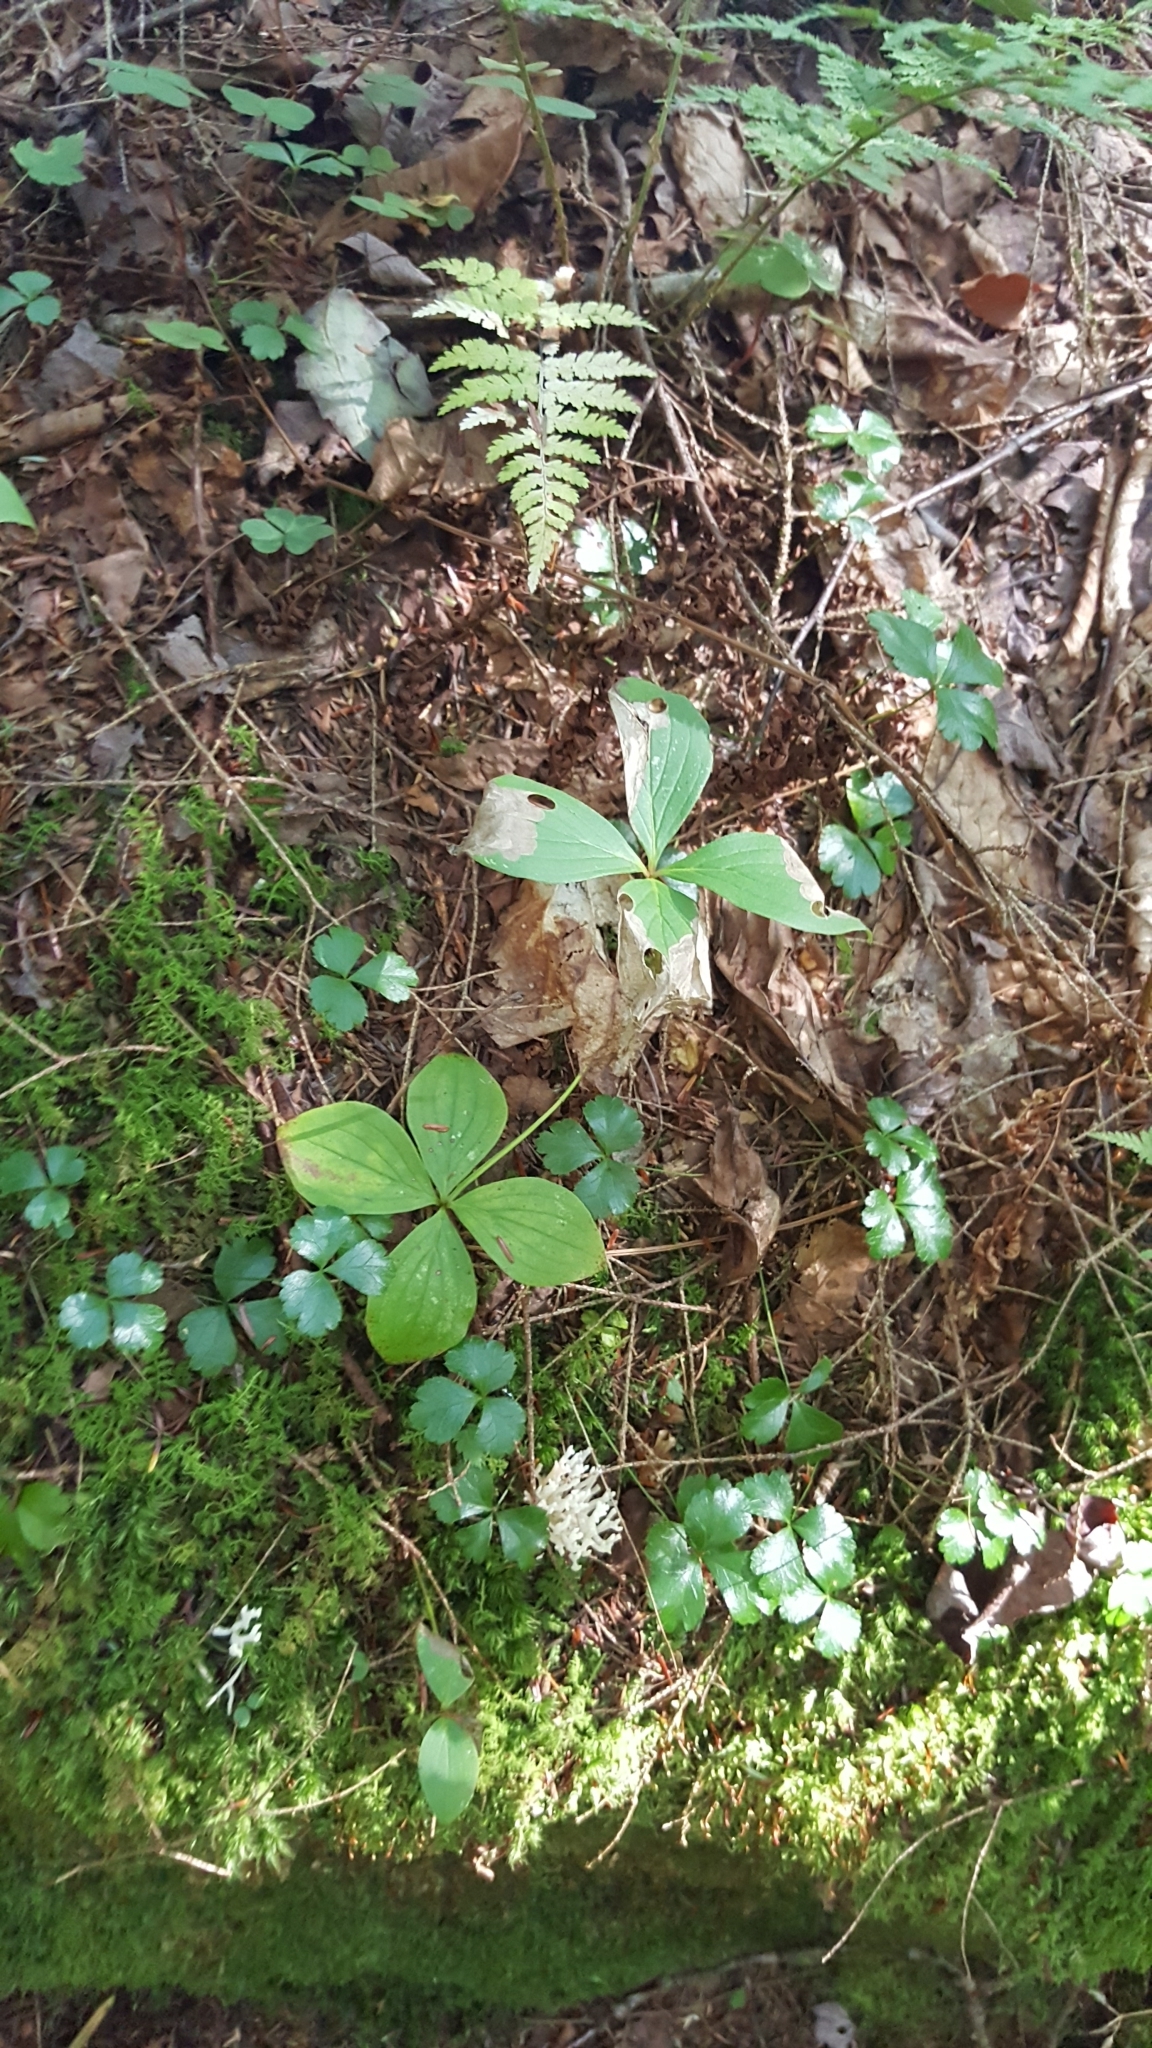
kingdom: Plantae
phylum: Tracheophyta
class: Magnoliopsida
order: Cornales
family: Cornaceae
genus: Cornus
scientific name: Cornus canadensis
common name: Creeping dogwood
